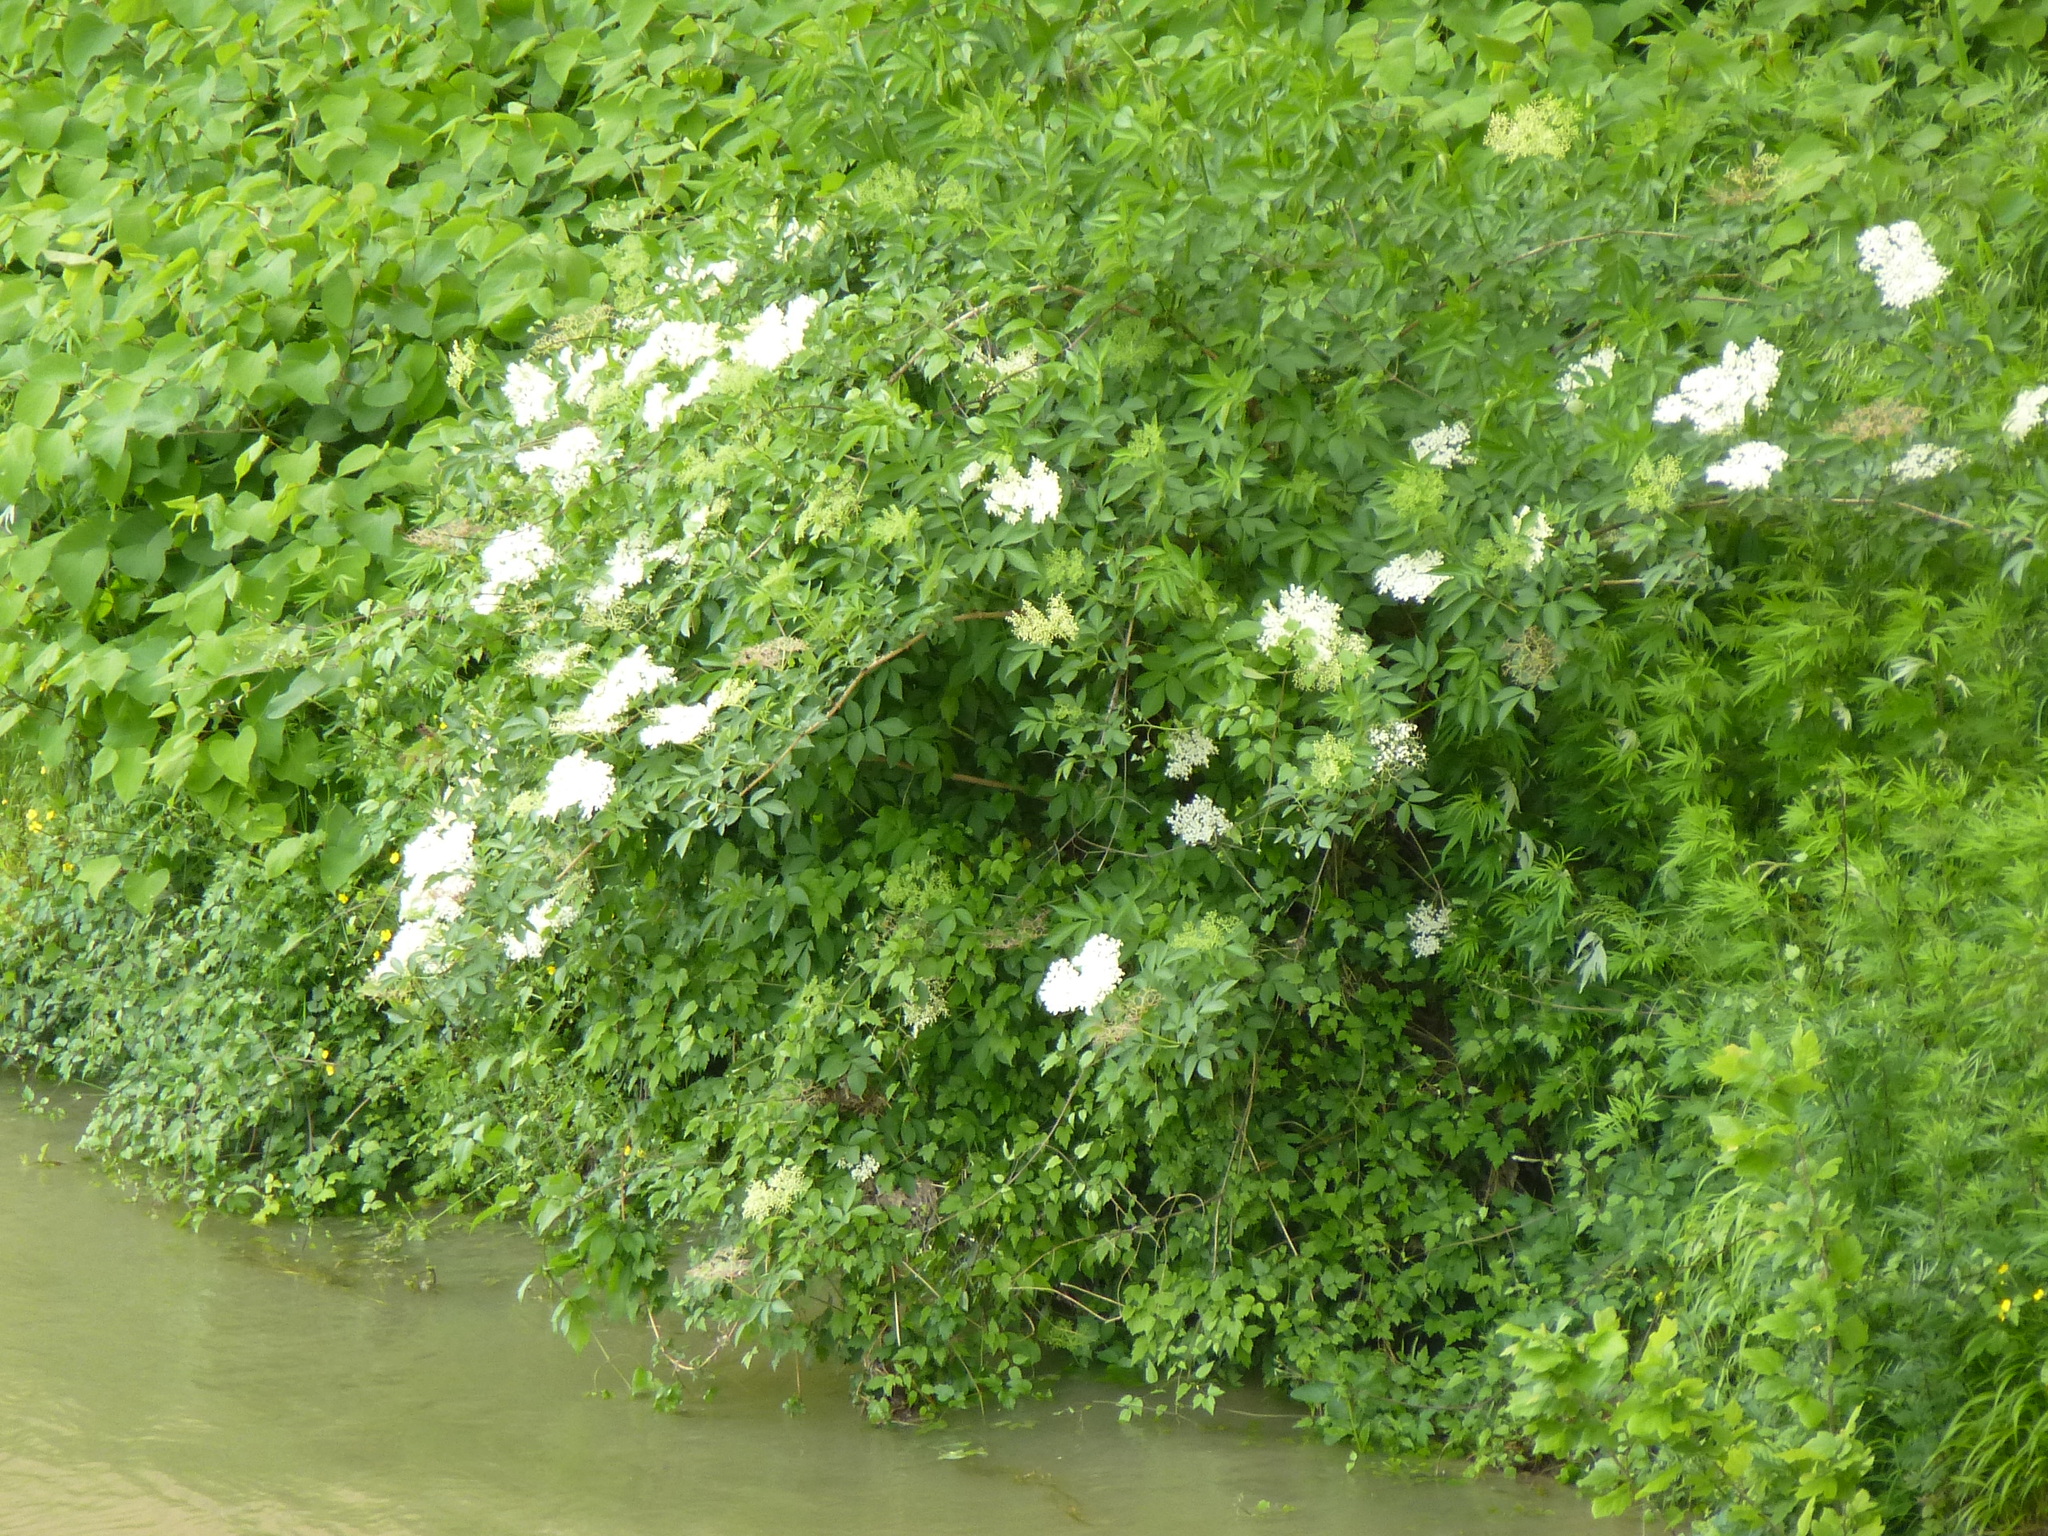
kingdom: Plantae
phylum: Tracheophyta
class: Magnoliopsida
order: Dipsacales
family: Viburnaceae
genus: Sambucus
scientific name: Sambucus nigra
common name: Elder
